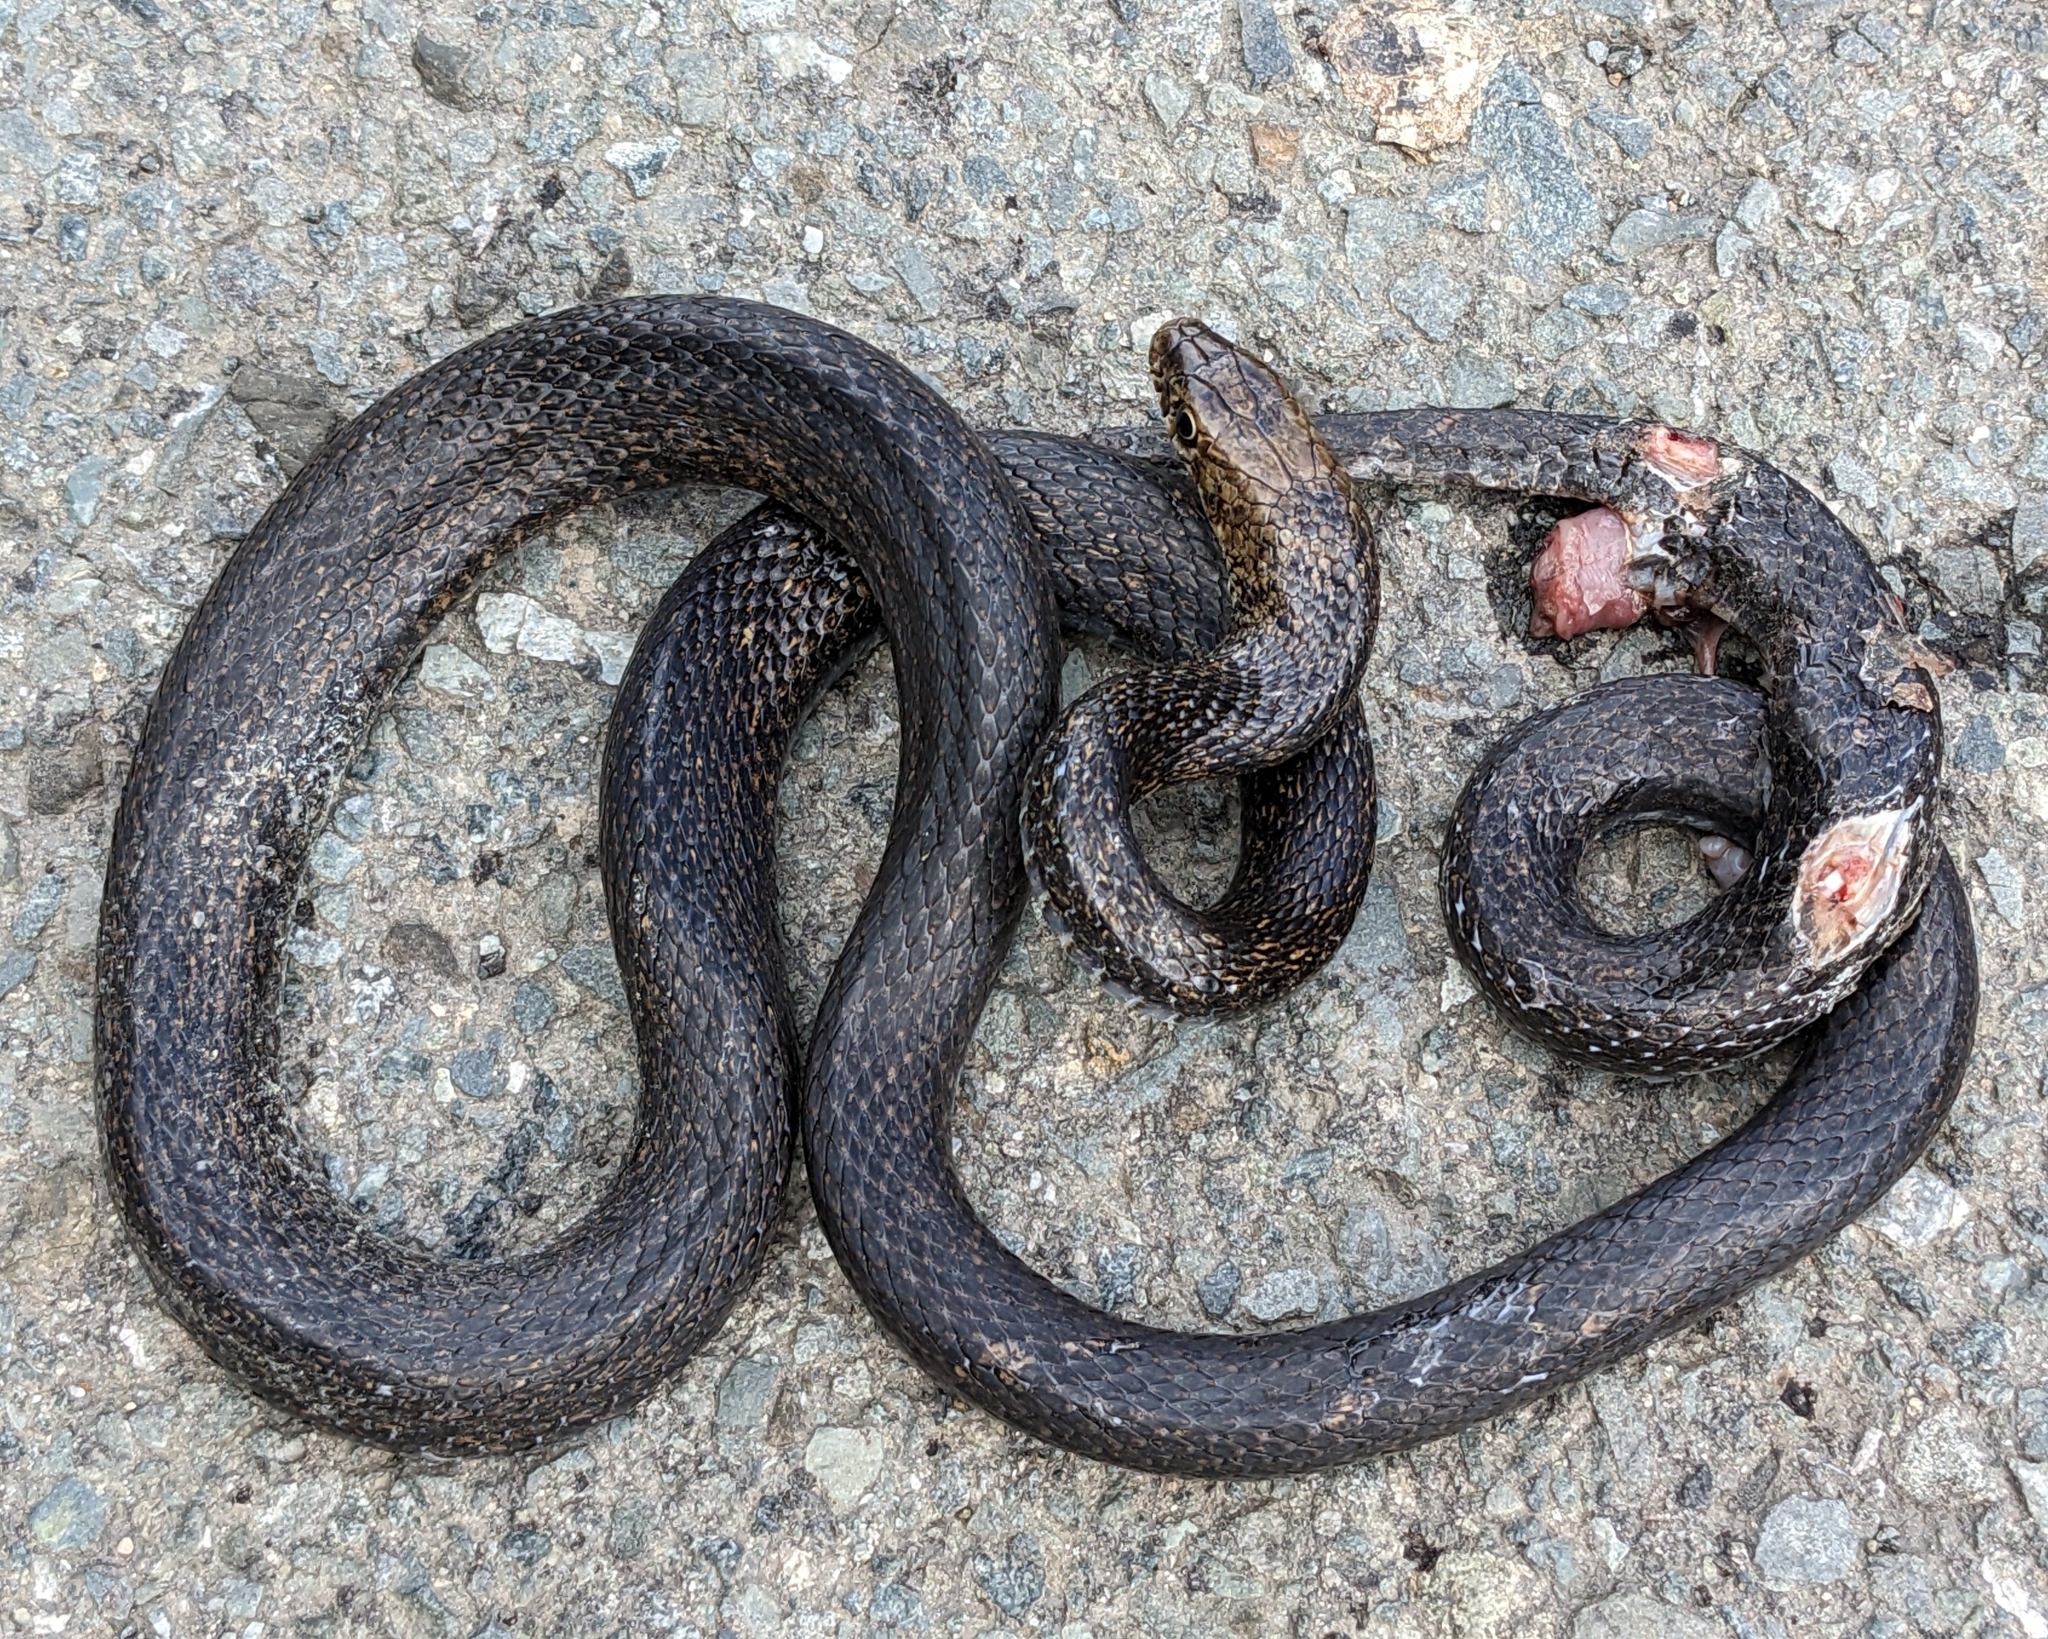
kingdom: Animalia
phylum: Chordata
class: Squamata
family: Colubridae
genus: Dolichophis
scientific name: Dolichophis jugularis
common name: Large whip snake
